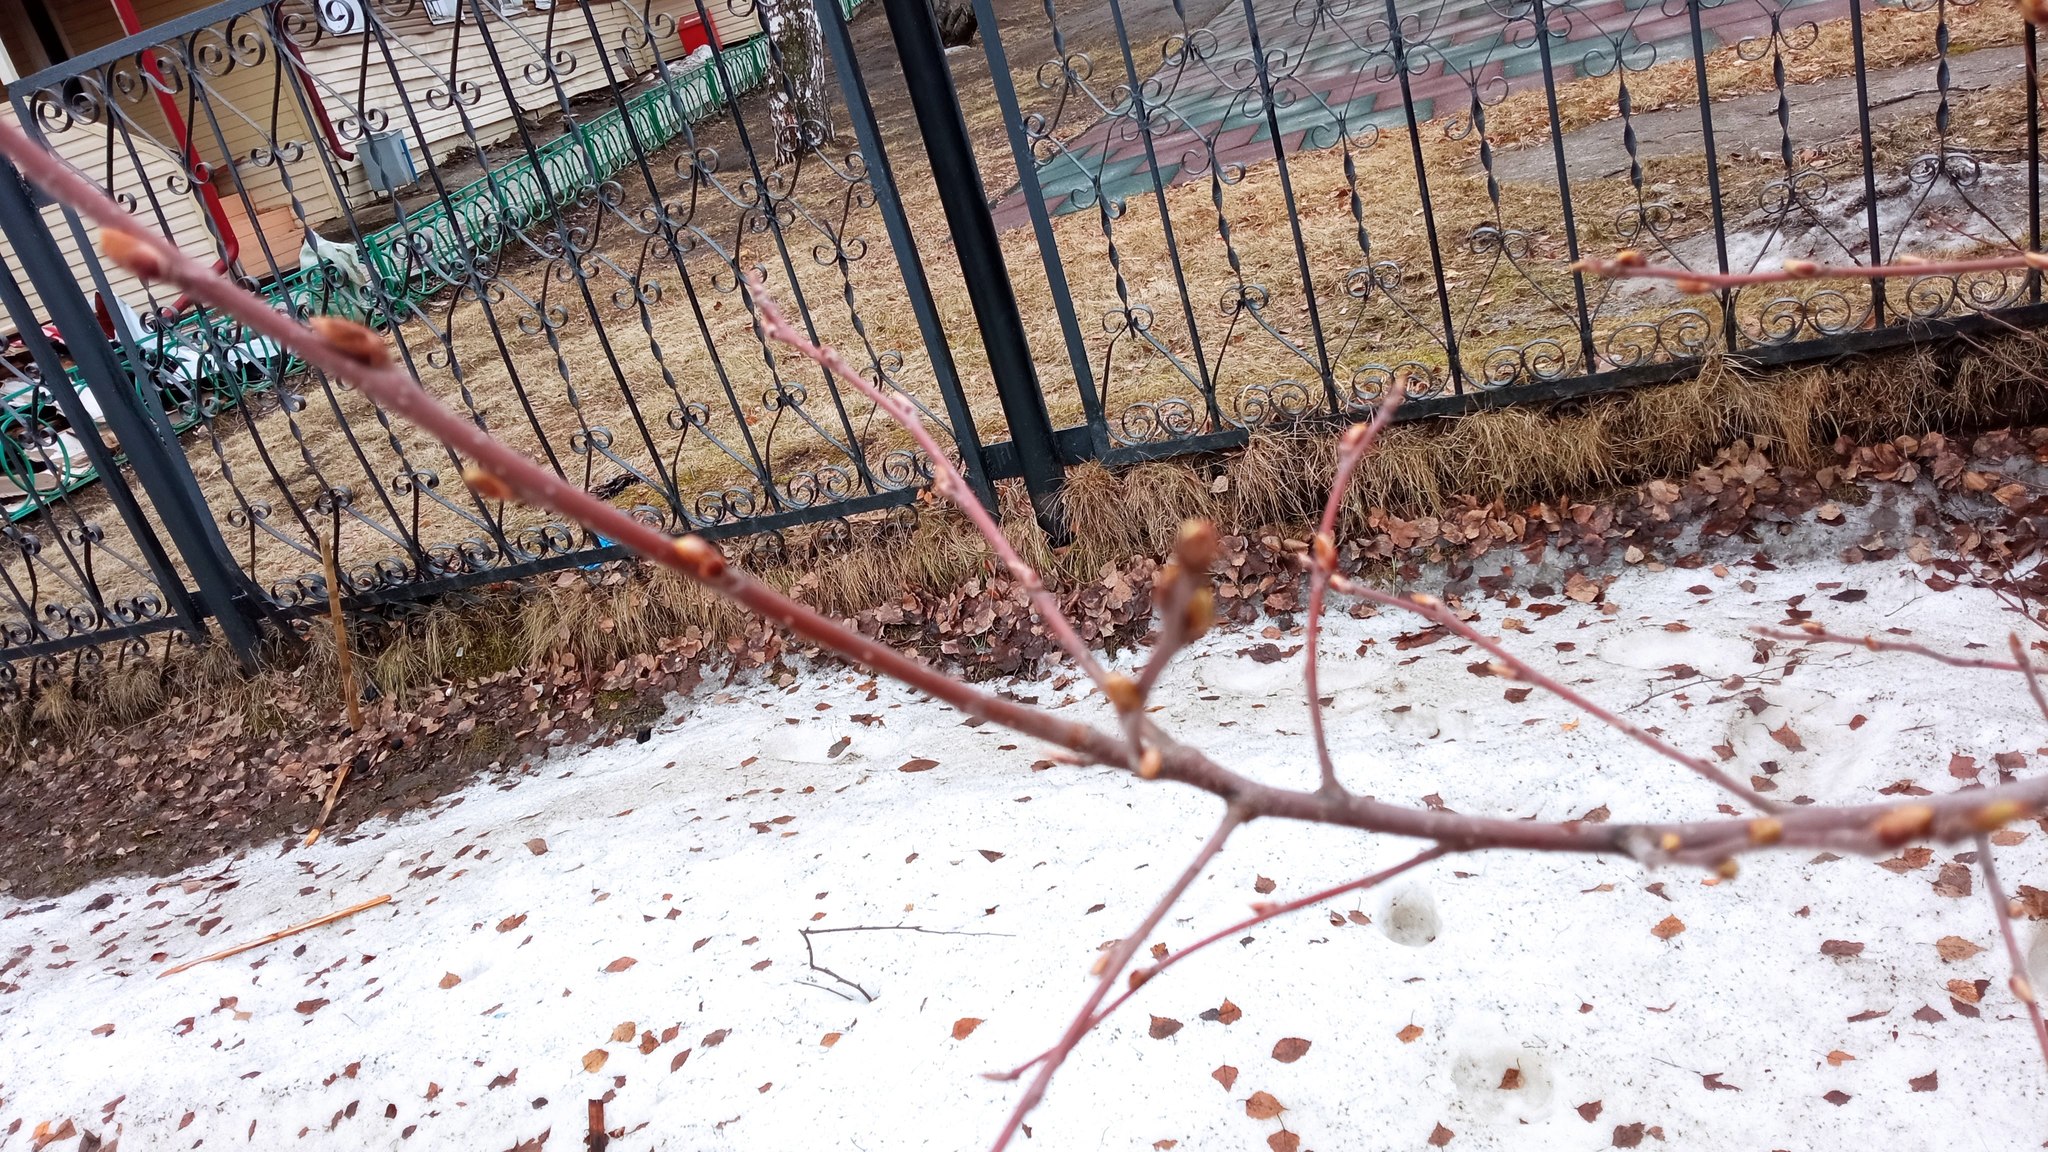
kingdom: Plantae
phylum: Tracheophyta
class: Magnoliopsida
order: Rosales
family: Rosaceae
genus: Prunus
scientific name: Prunus padus
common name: Bird cherry
